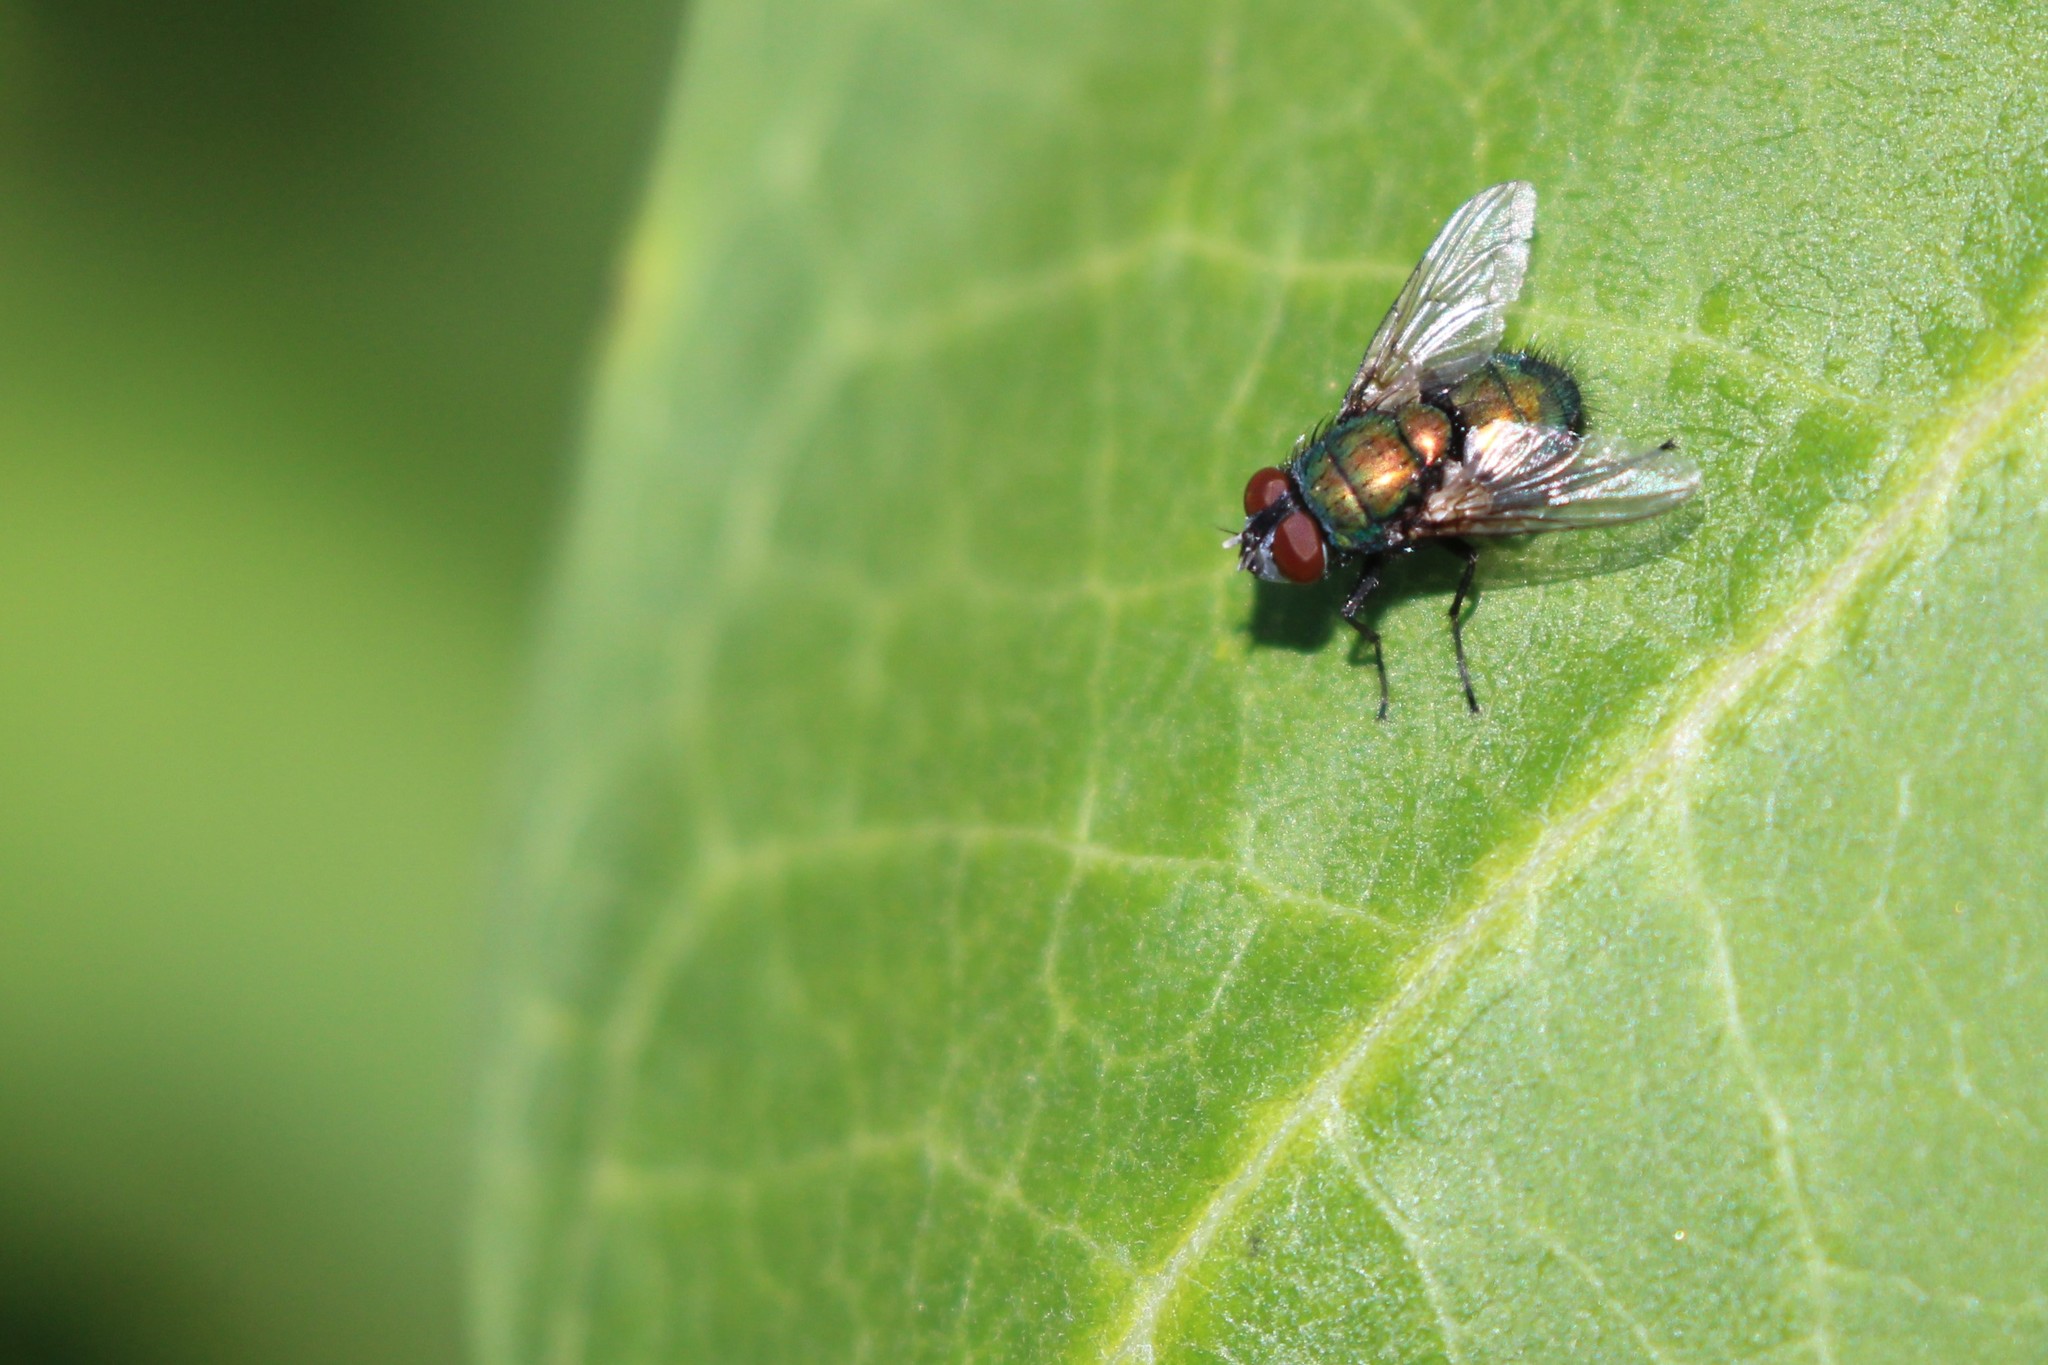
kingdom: Animalia
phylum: Arthropoda
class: Insecta
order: Diptera
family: Calliphoridae
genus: Lucilia
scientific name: Lucilia sericata
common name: Blow fly
